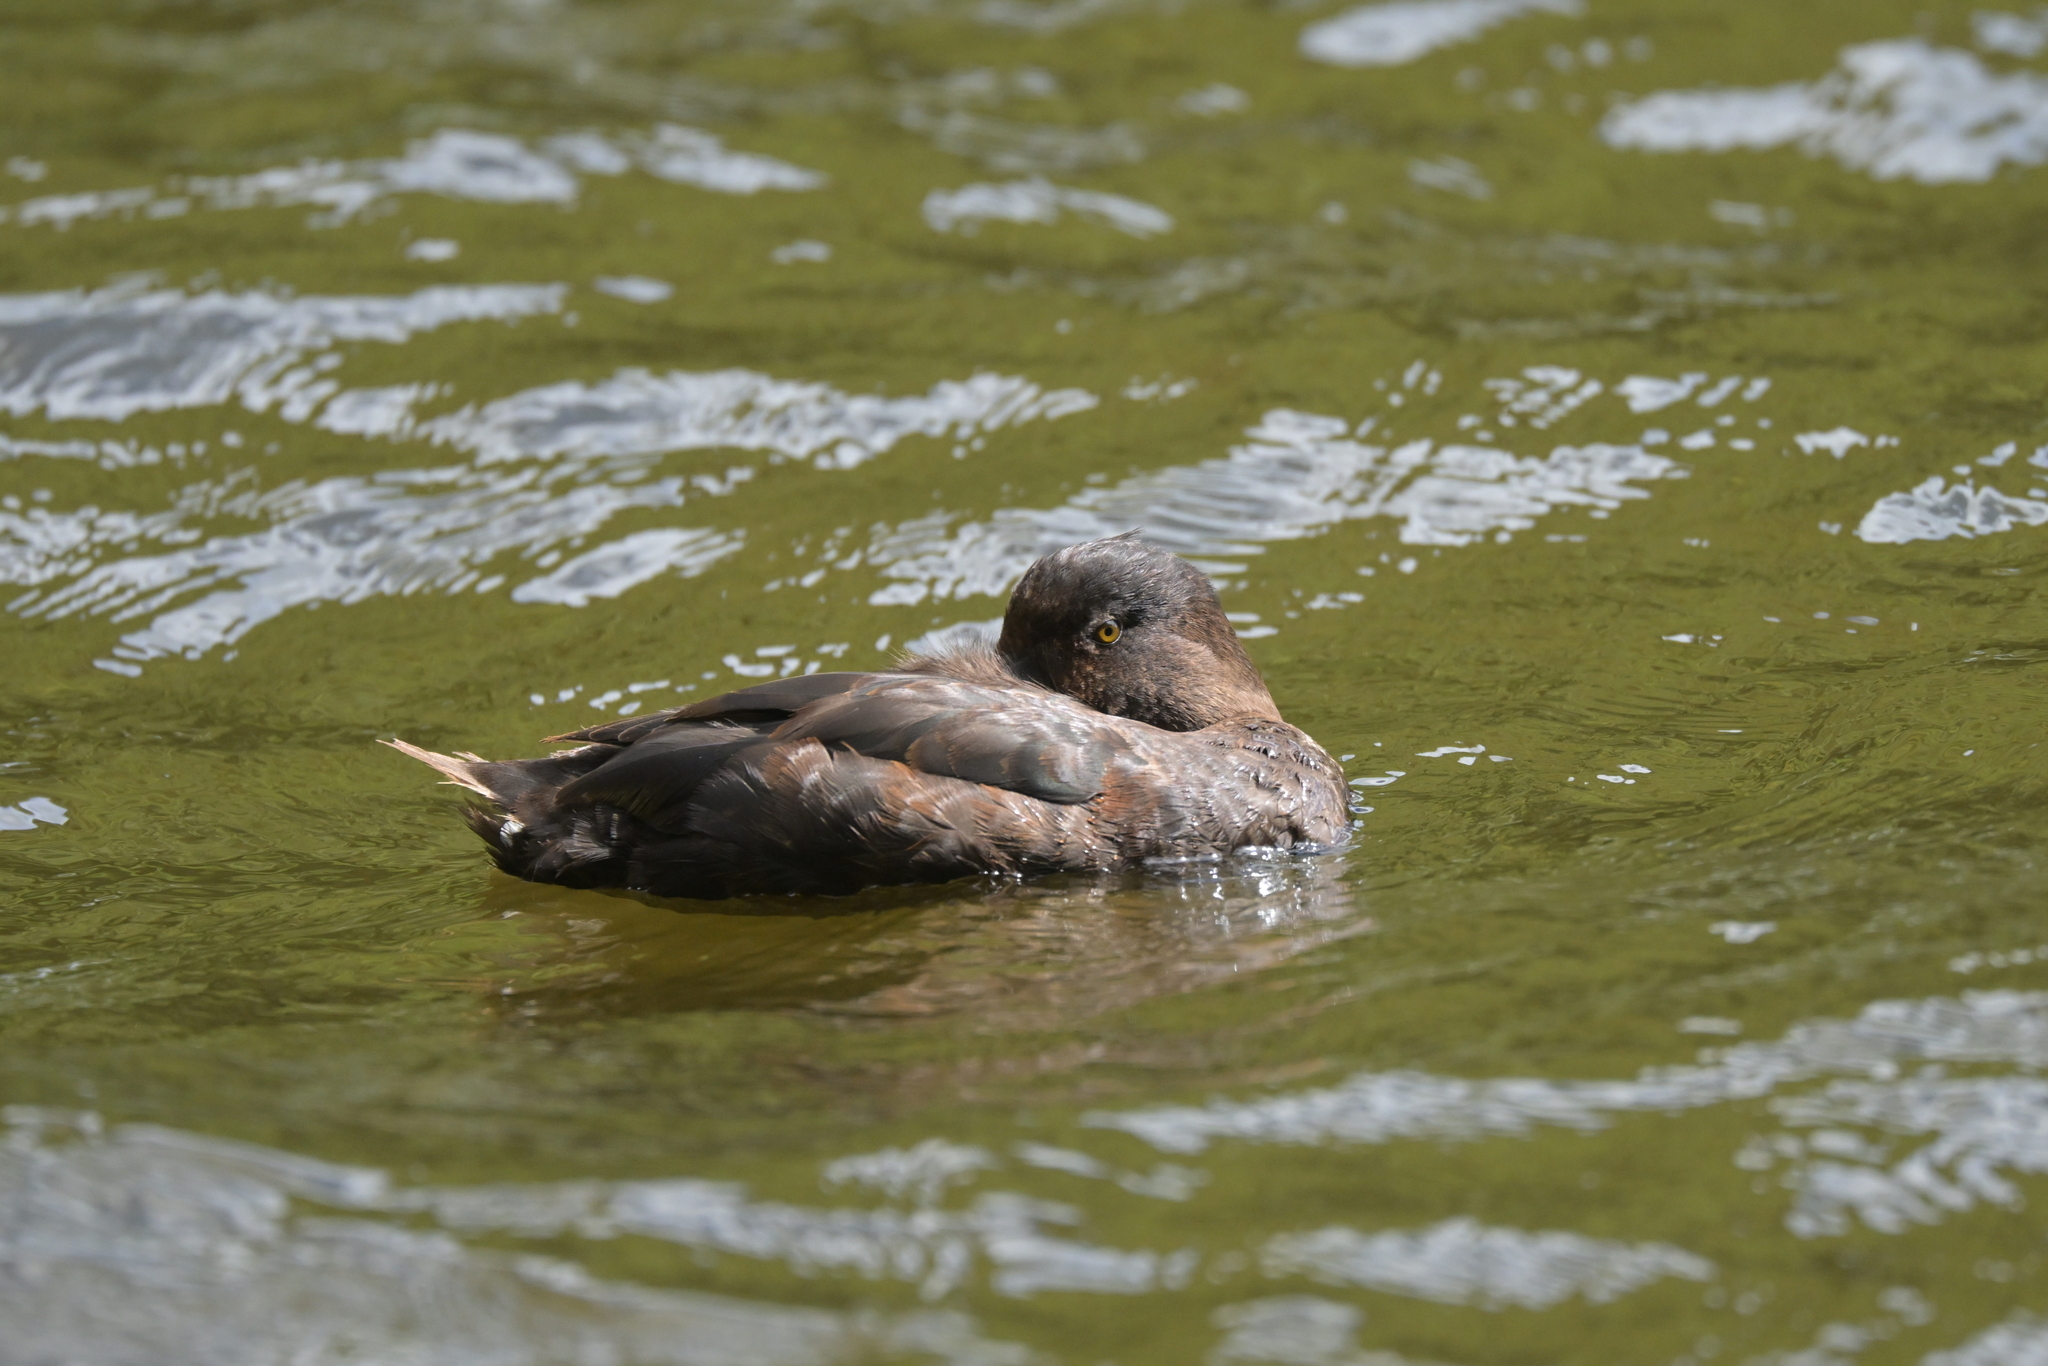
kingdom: Animalia
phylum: Chordata
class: Aves
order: Anseriformes
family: Anatidae
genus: Aythya
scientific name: Aythya novaeseelandiae
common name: New zealand scaup
